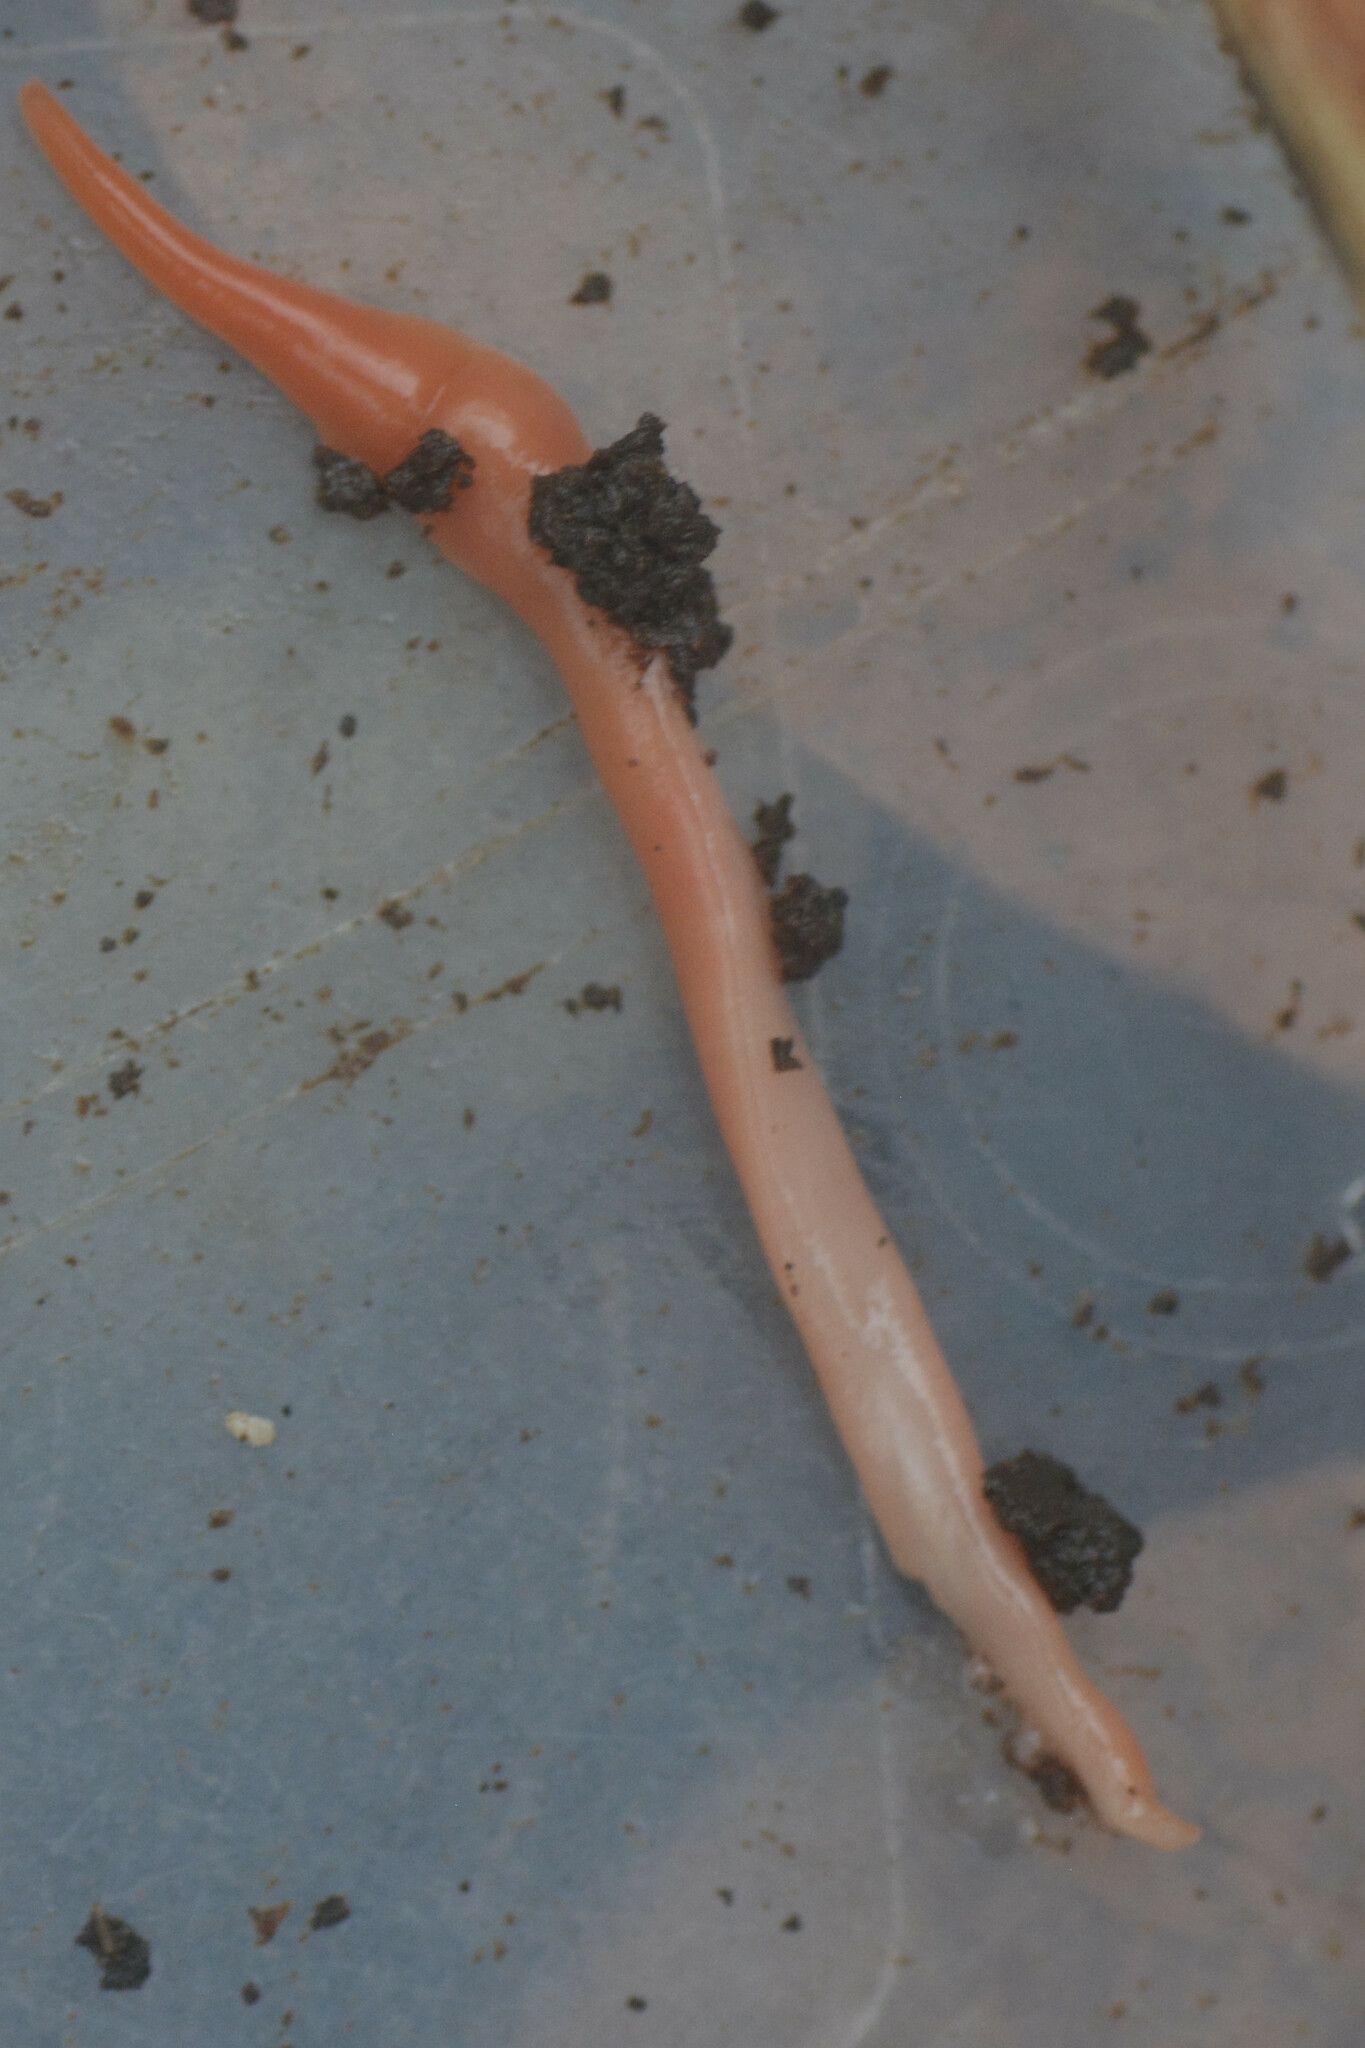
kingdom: Animalia
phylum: Platyhelminthes
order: Tricladida
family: Geoplanidae
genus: Australoplana
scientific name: Australoplana sanguinea
